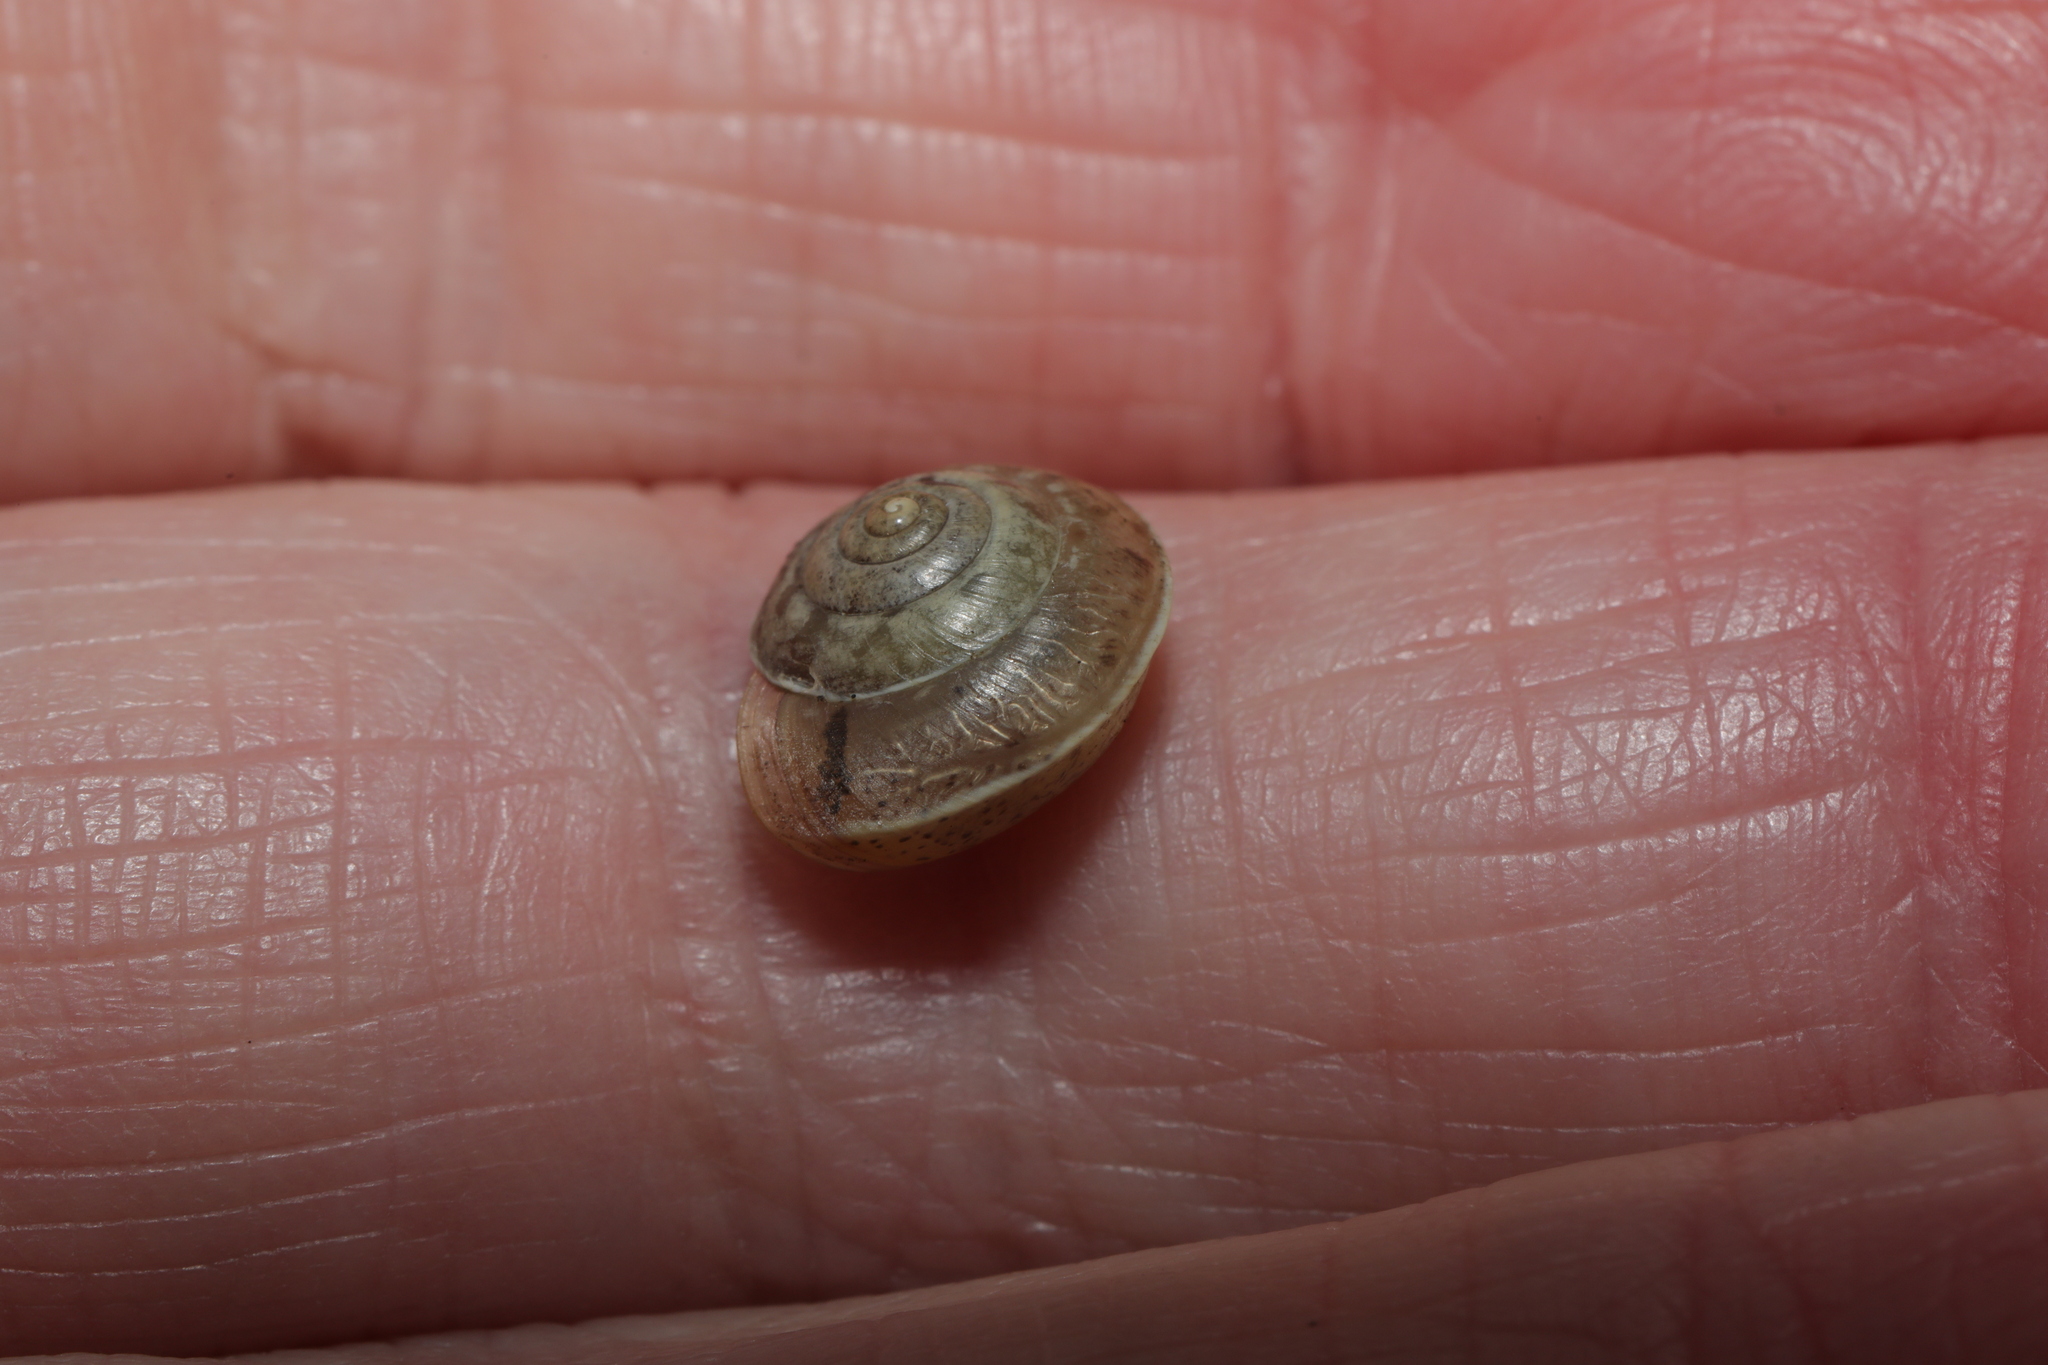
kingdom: Animalia
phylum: Mollusca
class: Gastropoda
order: Stylommatophora
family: Hygromiidae
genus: Hygromia
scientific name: Hygromia cinctella
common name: Girdled snail
